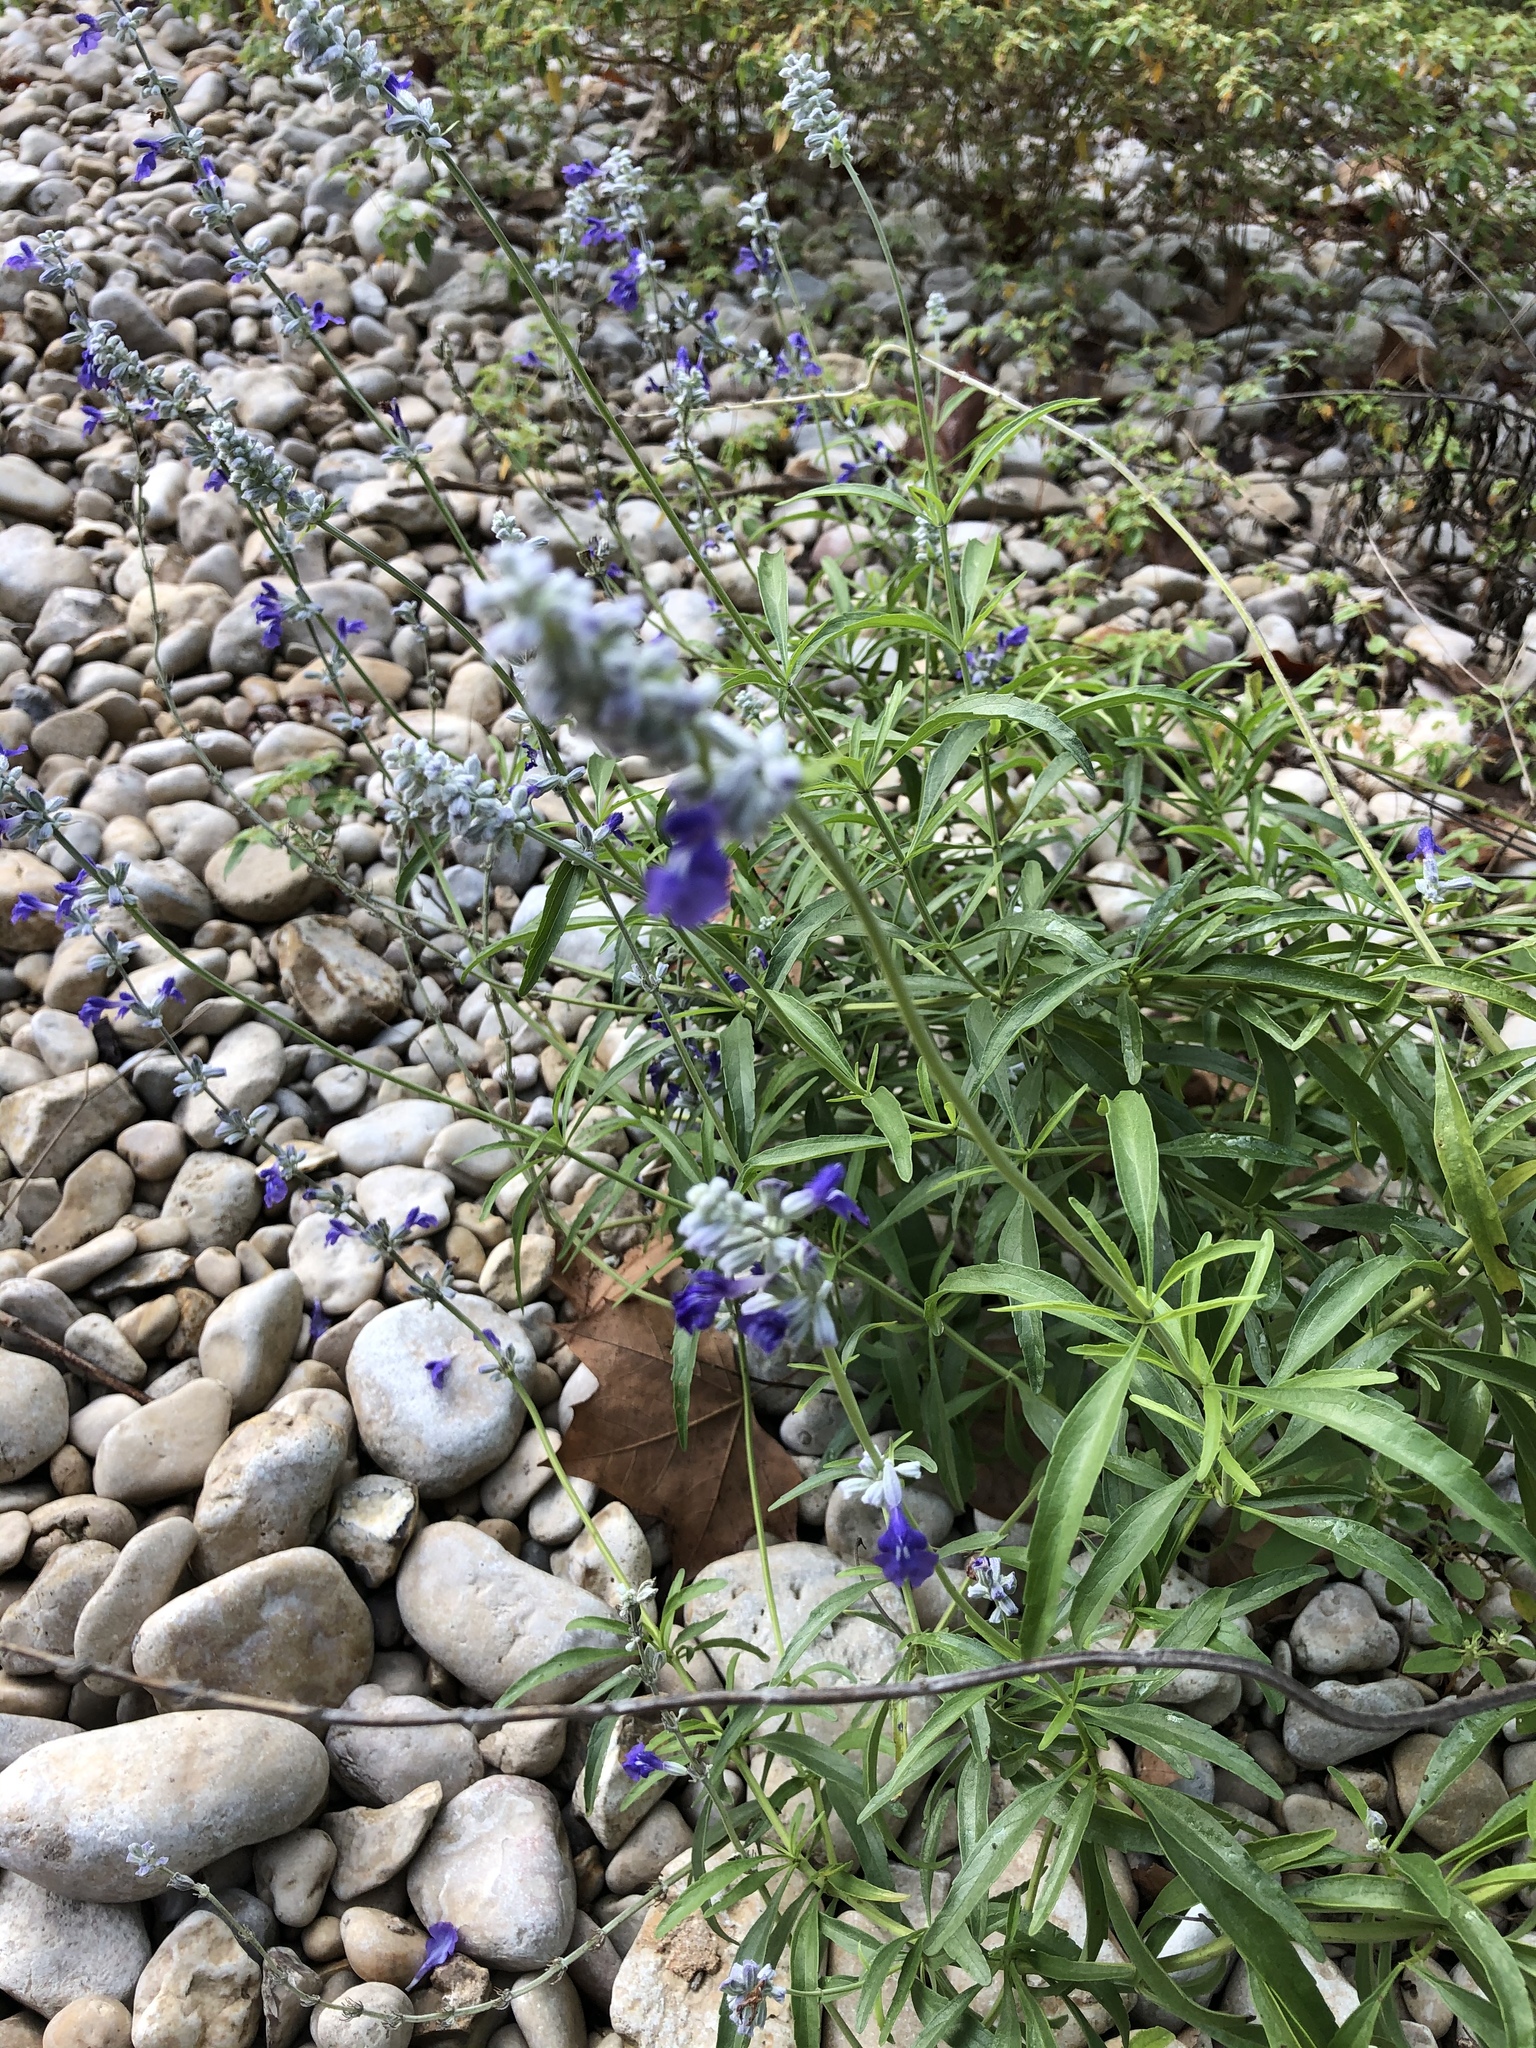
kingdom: Plantae
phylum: Tracheophyta
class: Magnoliopsida
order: Lamiales
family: Lamiaceae
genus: Salvia
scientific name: Salvia farinacea
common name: Mealy sage
